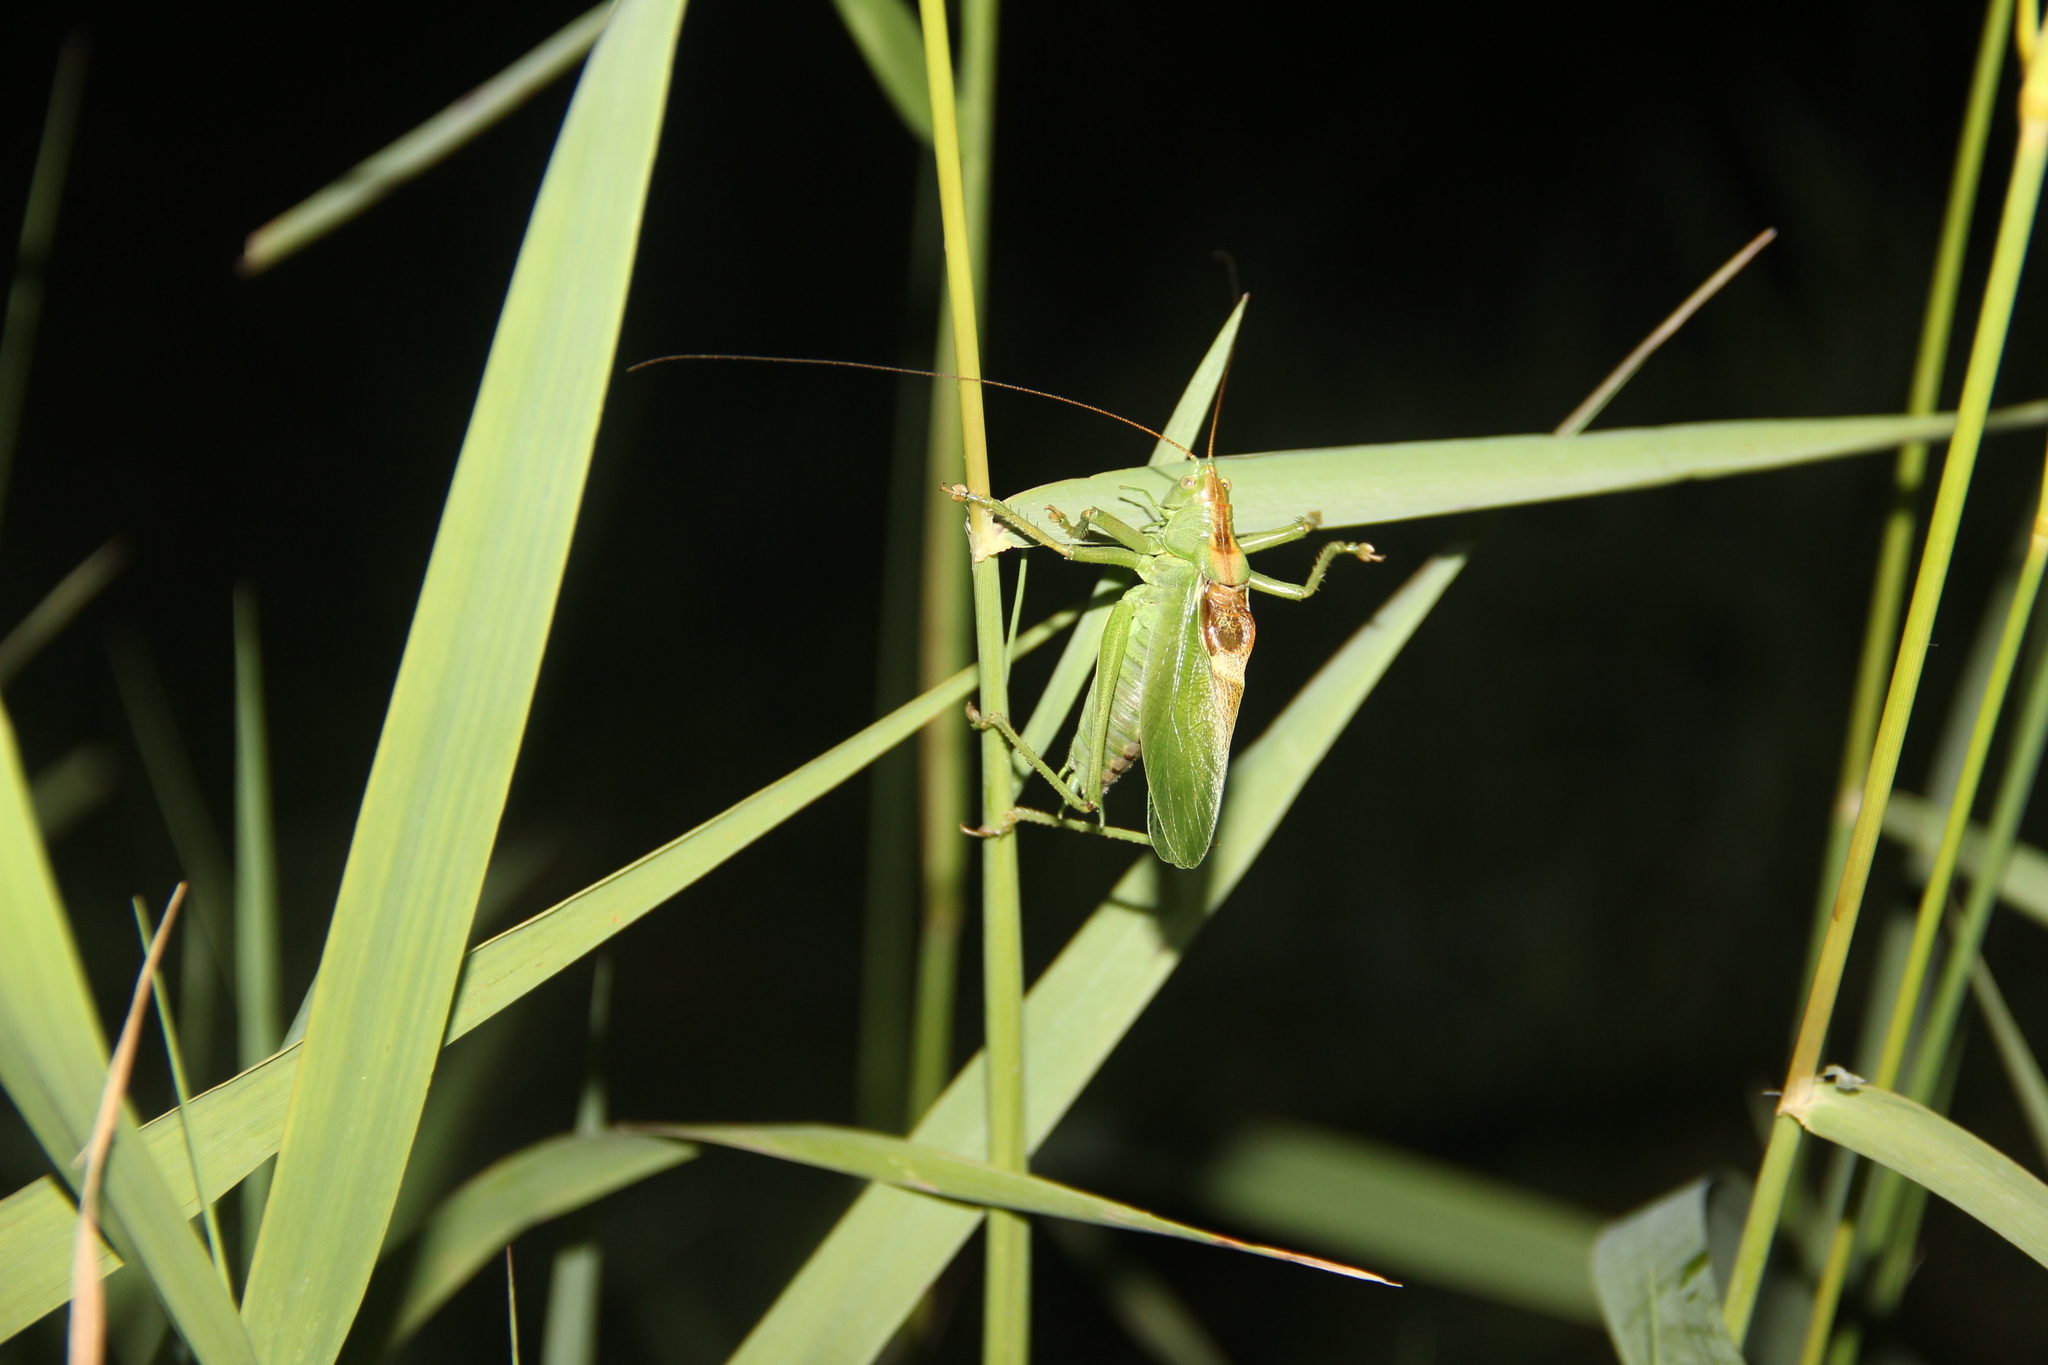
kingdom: Animalia
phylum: Arthropoda
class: Insecta
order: Orthoptera
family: Tettigoniidae
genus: Tettigonia
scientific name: Tettigonia cantans
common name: Upland green bush-cricket
